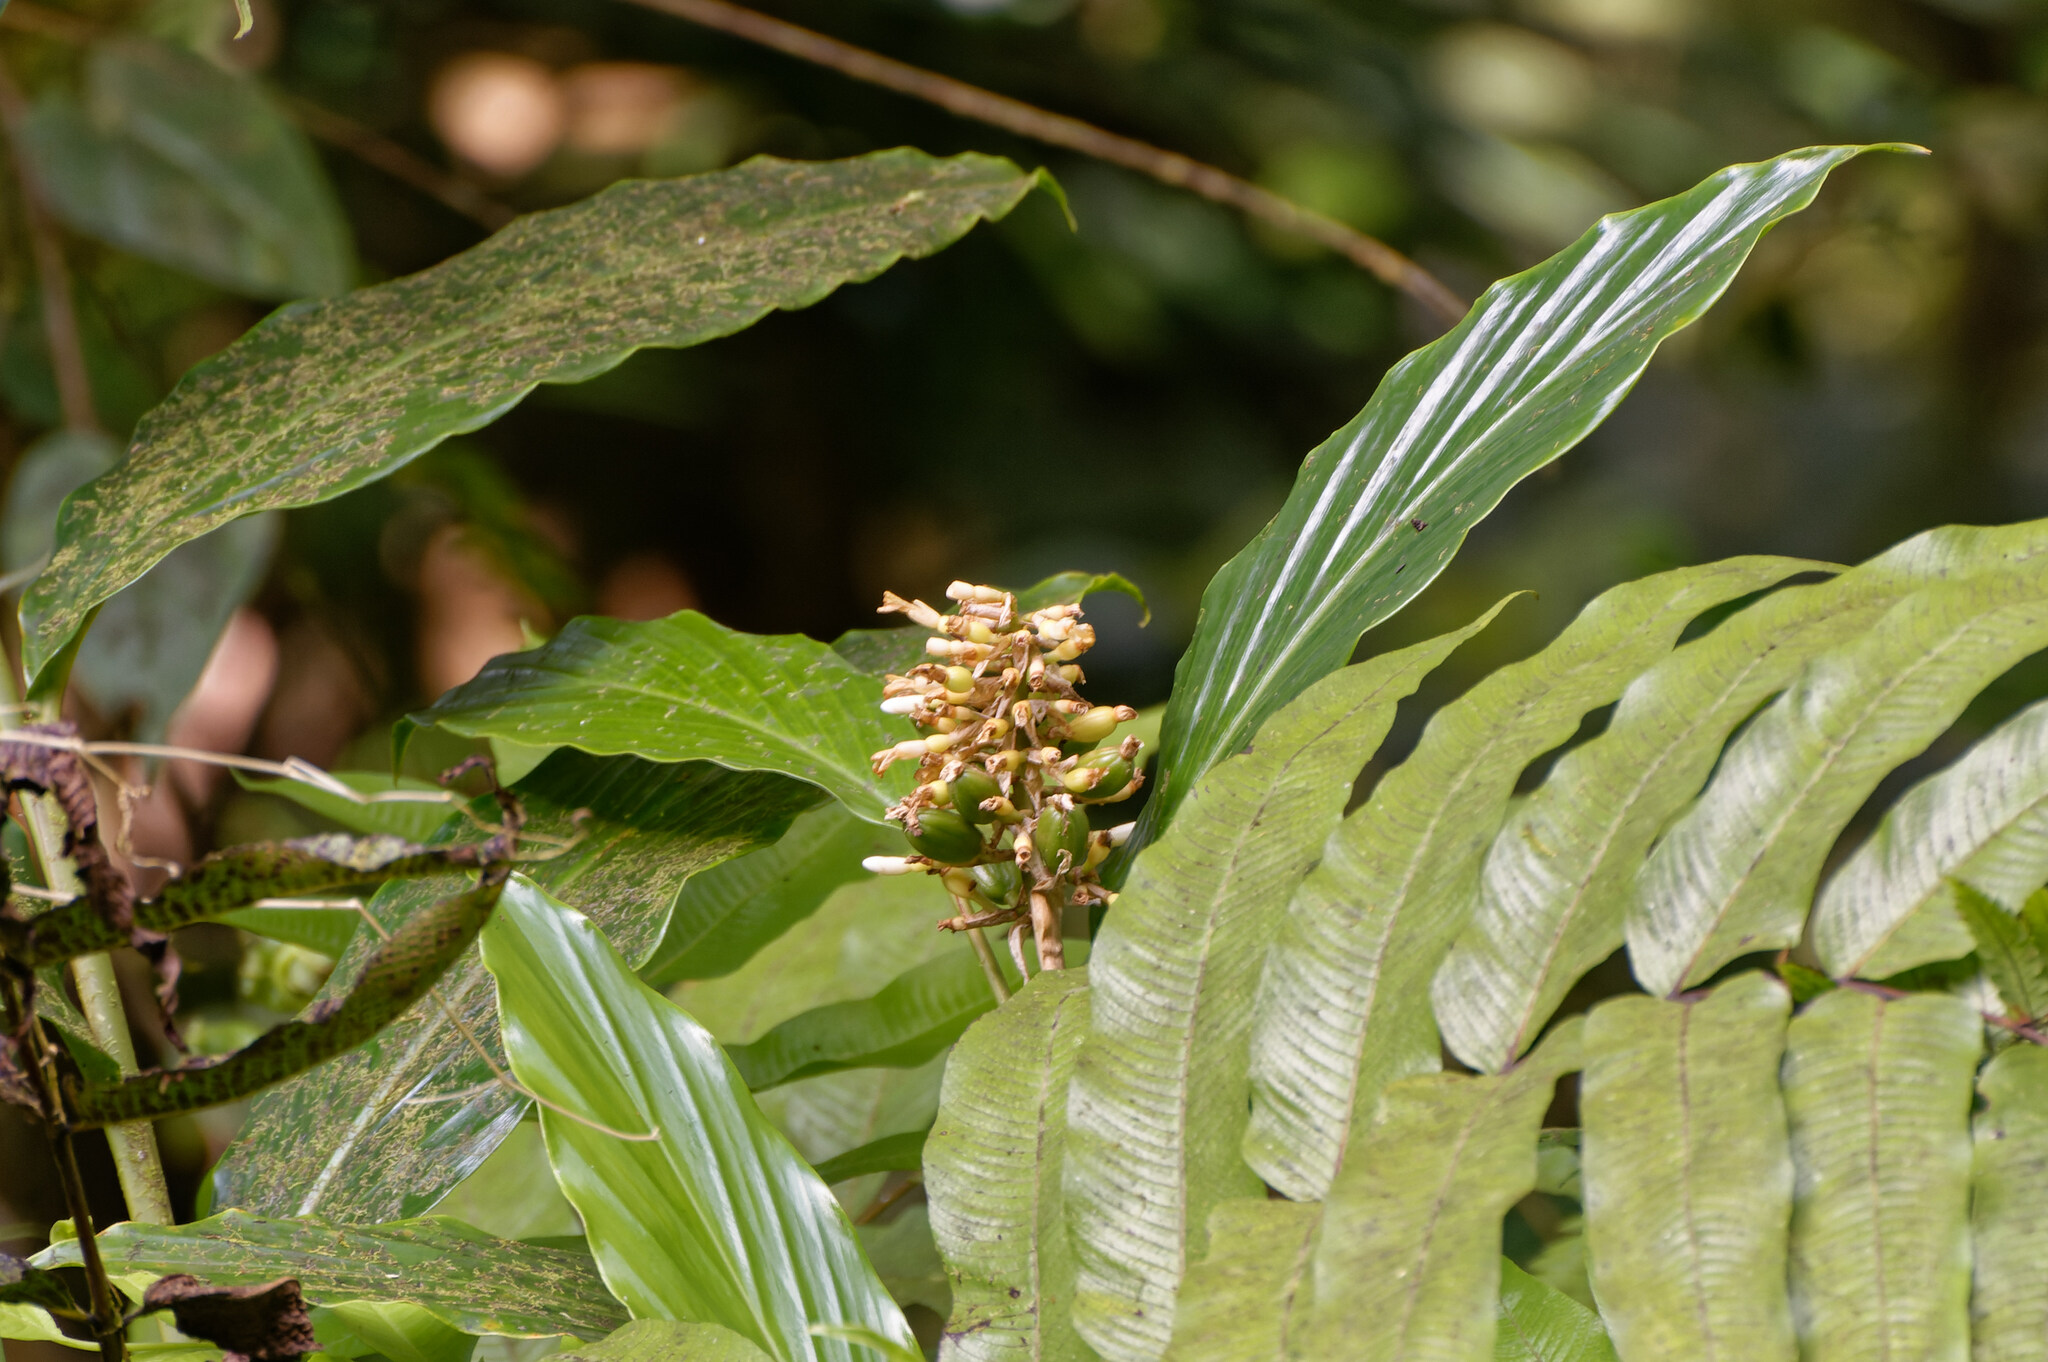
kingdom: Plantae
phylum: Tracheophyta
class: Liliopsida
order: Zingiberales
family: Zingiberaceae
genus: Renealmia
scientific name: Renealmia pyramidalis
